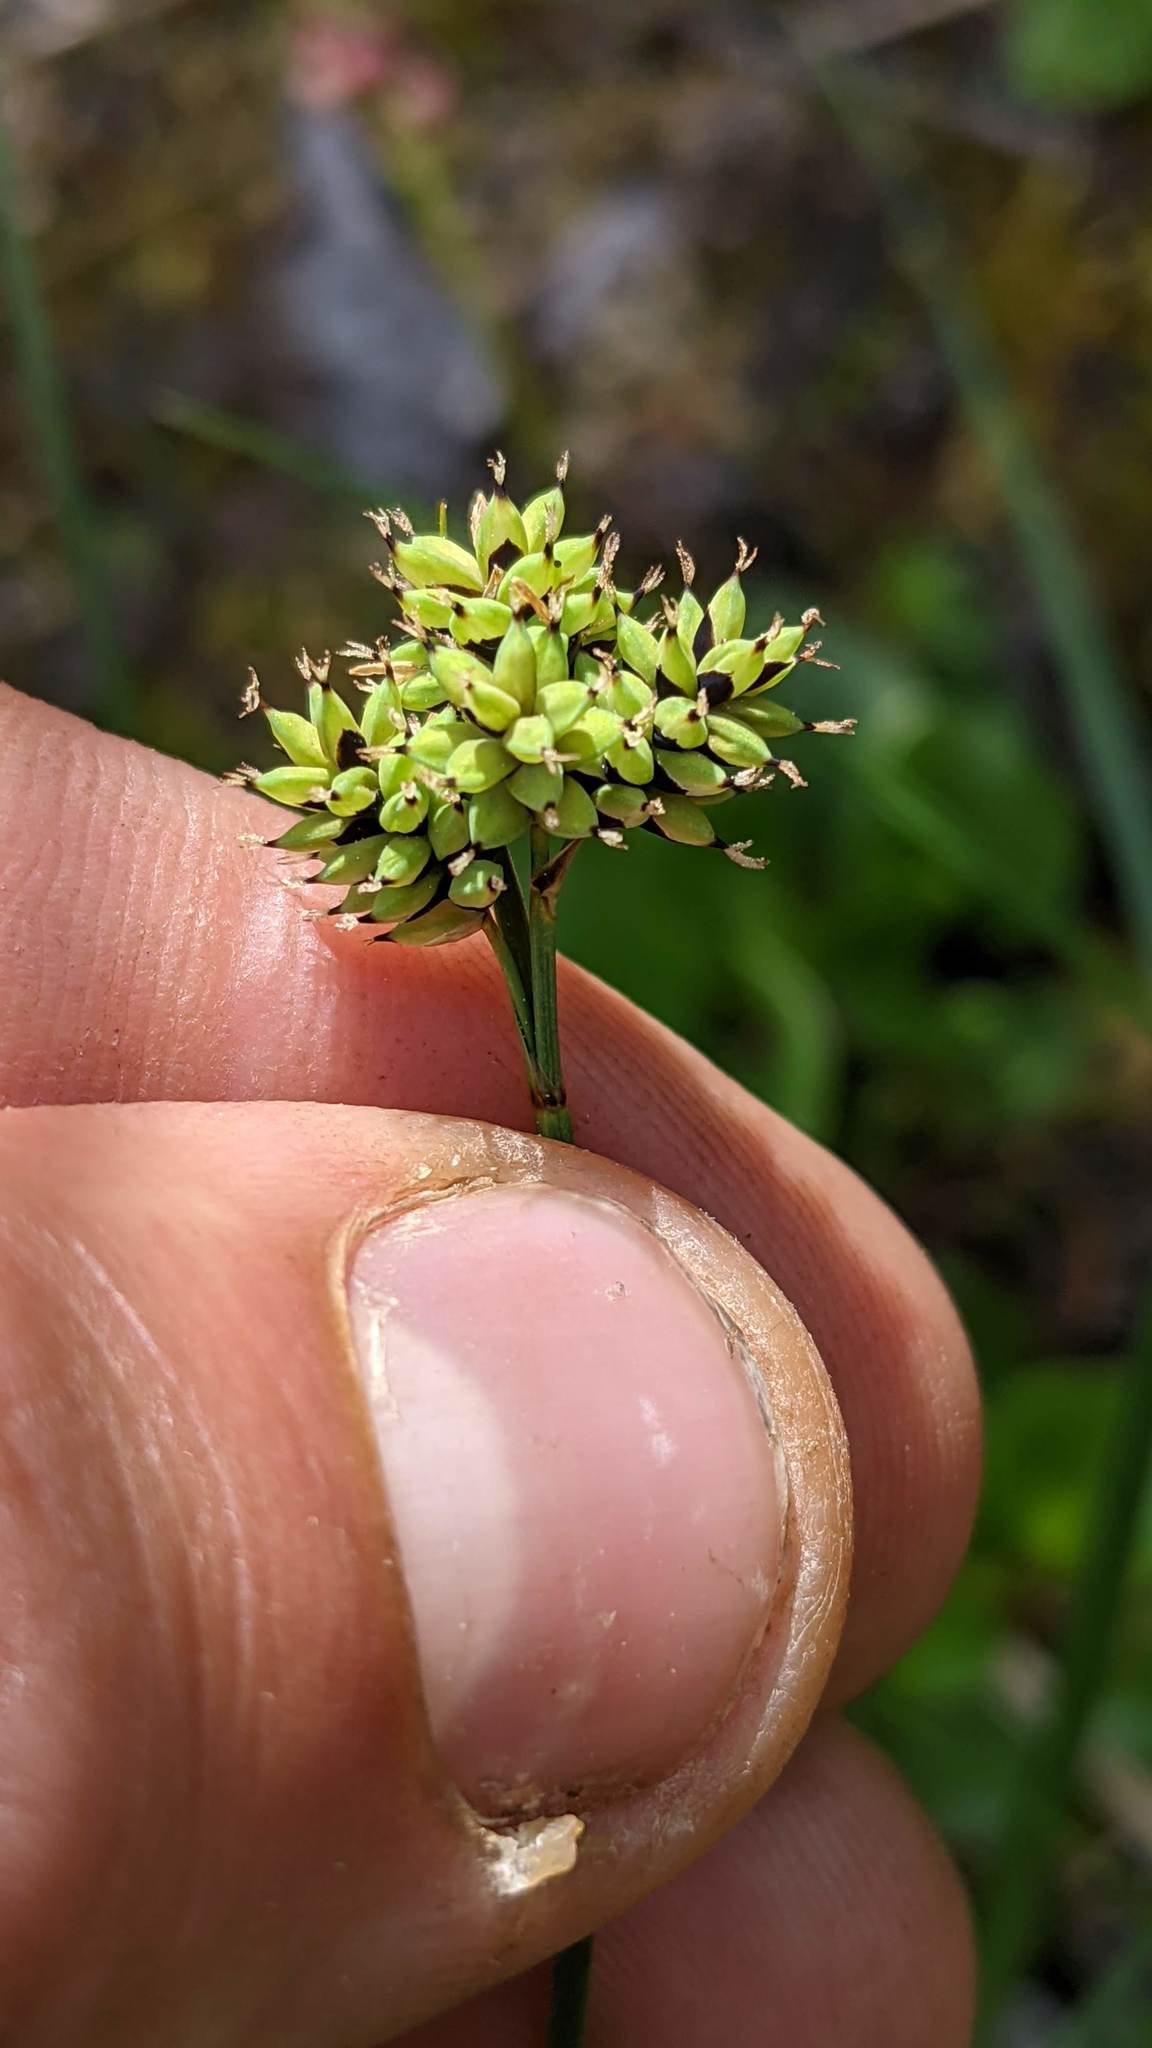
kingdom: Plantae
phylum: Tracheophyta
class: Liliopsida
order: Poales
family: Cyperaceae
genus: Carex
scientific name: Carex media
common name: Alpine sedge
